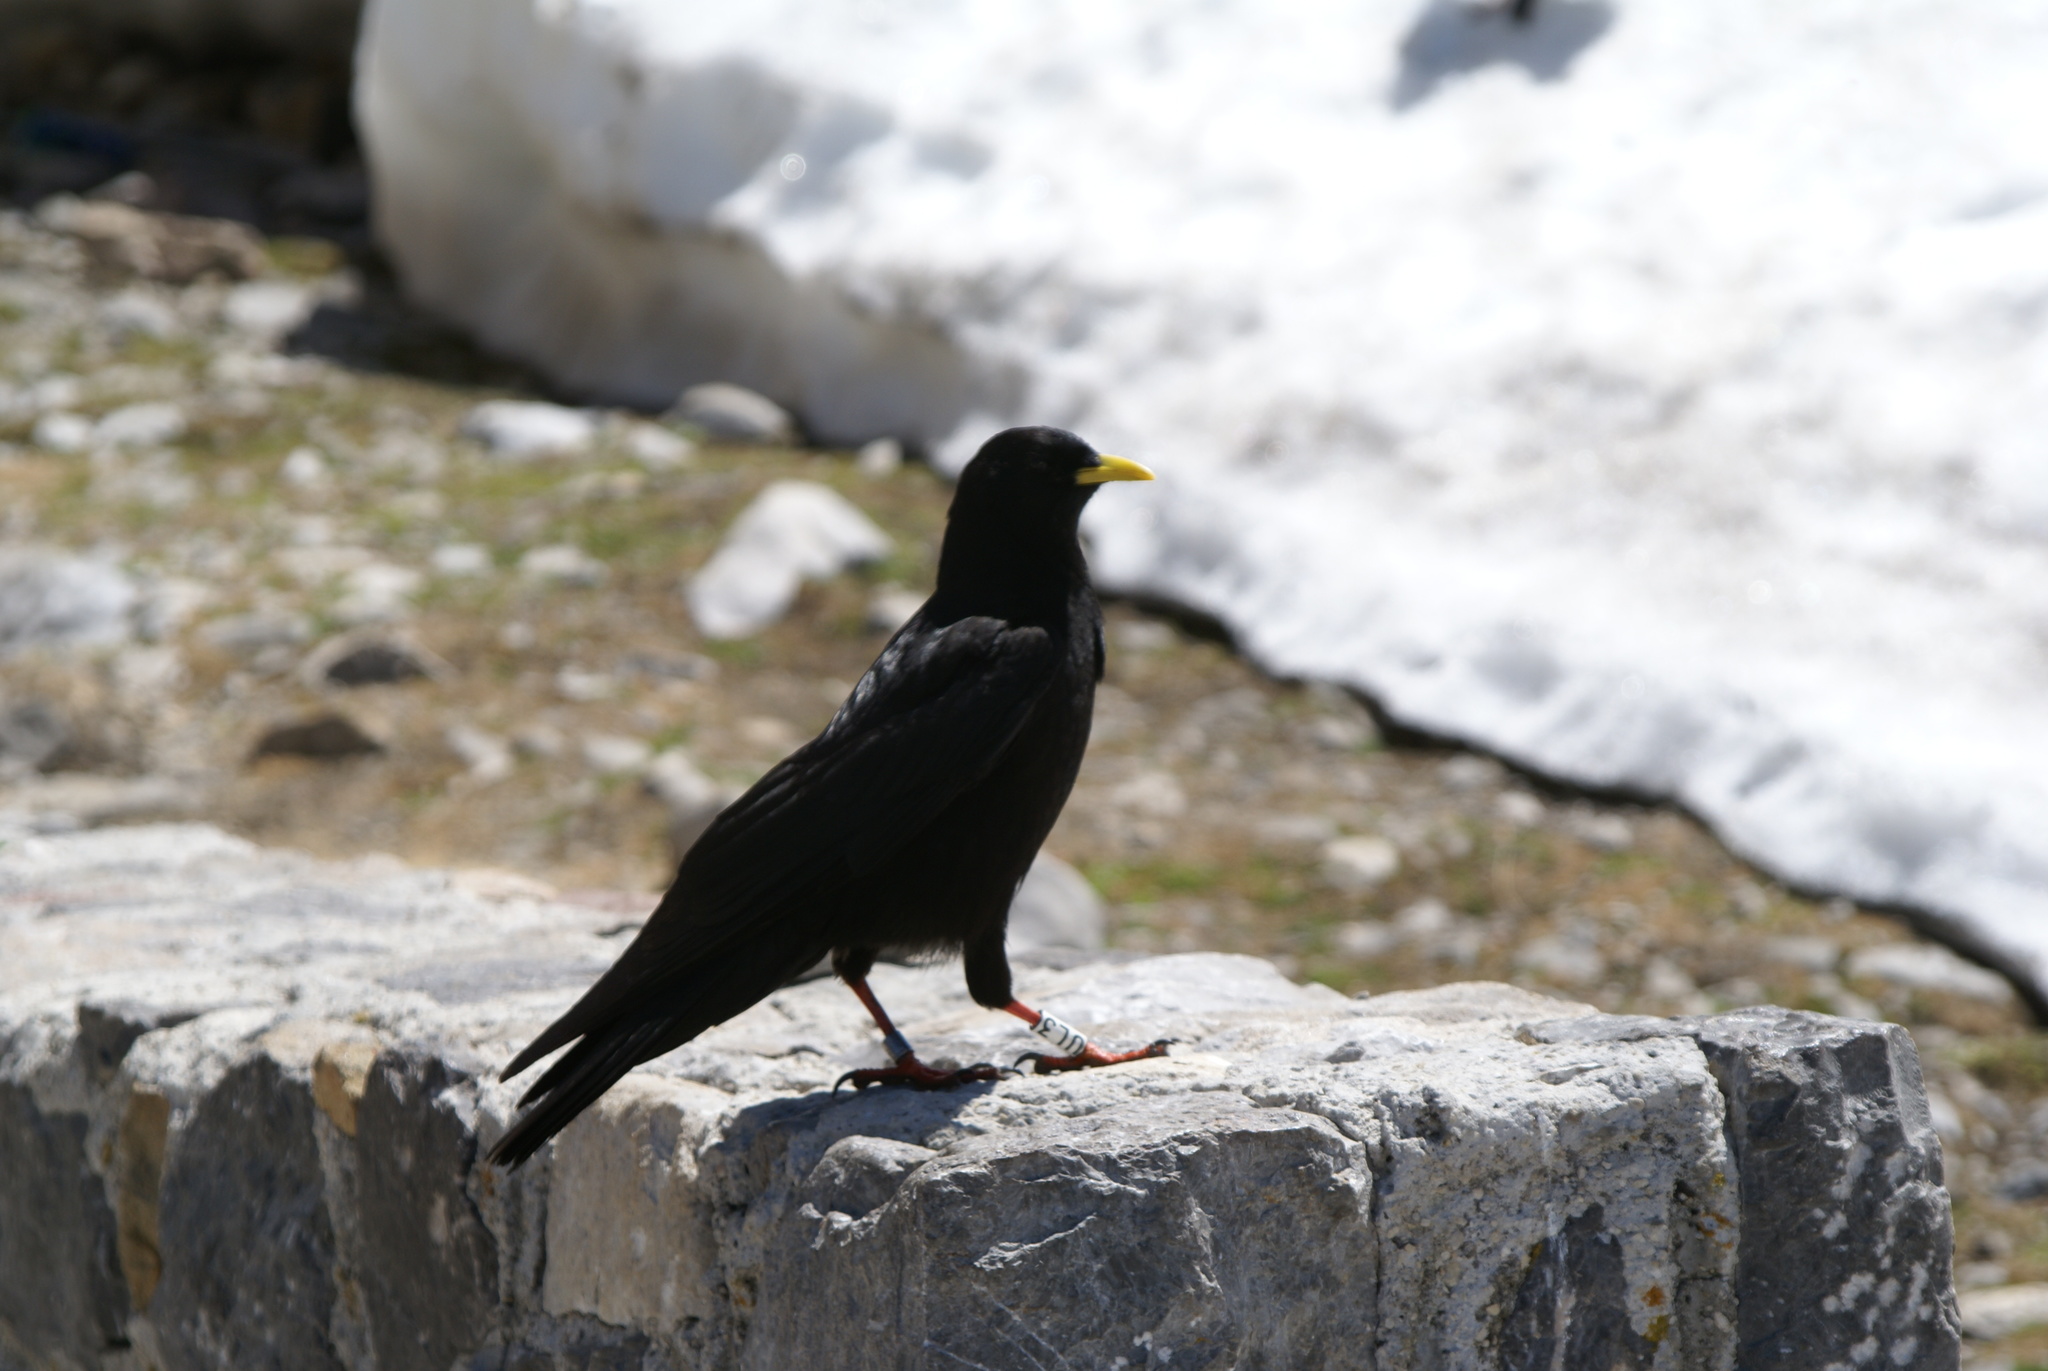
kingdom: Animalia
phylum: Chordata
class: Aves
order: Passeriformes
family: Corvidae
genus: Pyrrhocorax
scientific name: Pyrrhocorax graculus
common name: Alpine chough
